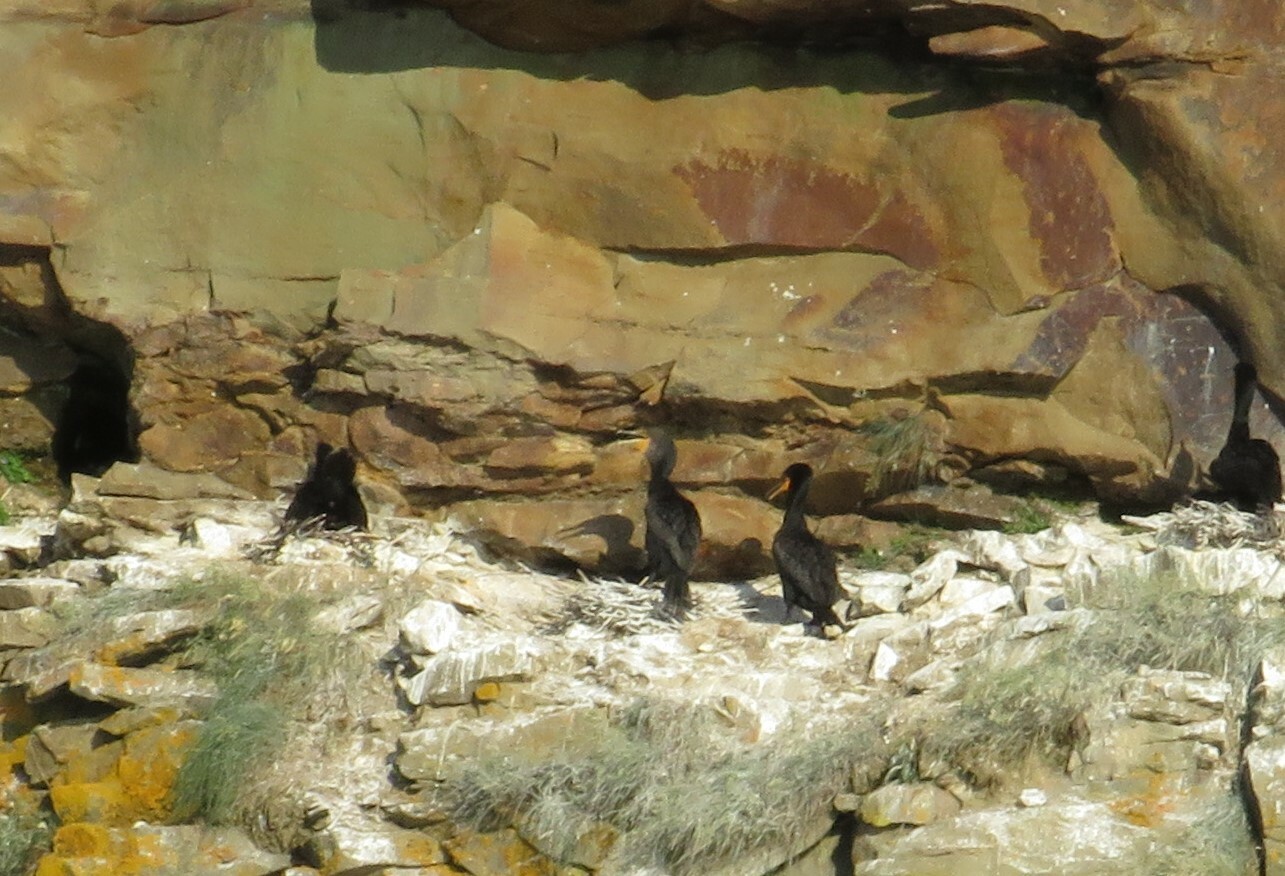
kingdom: Animalia
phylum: Chordata
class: Aves
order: Suliformes
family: Phalacrocoracidae
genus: Phalacrocorax
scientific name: Phalacrocorax auritus
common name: Double-crested cormorant
